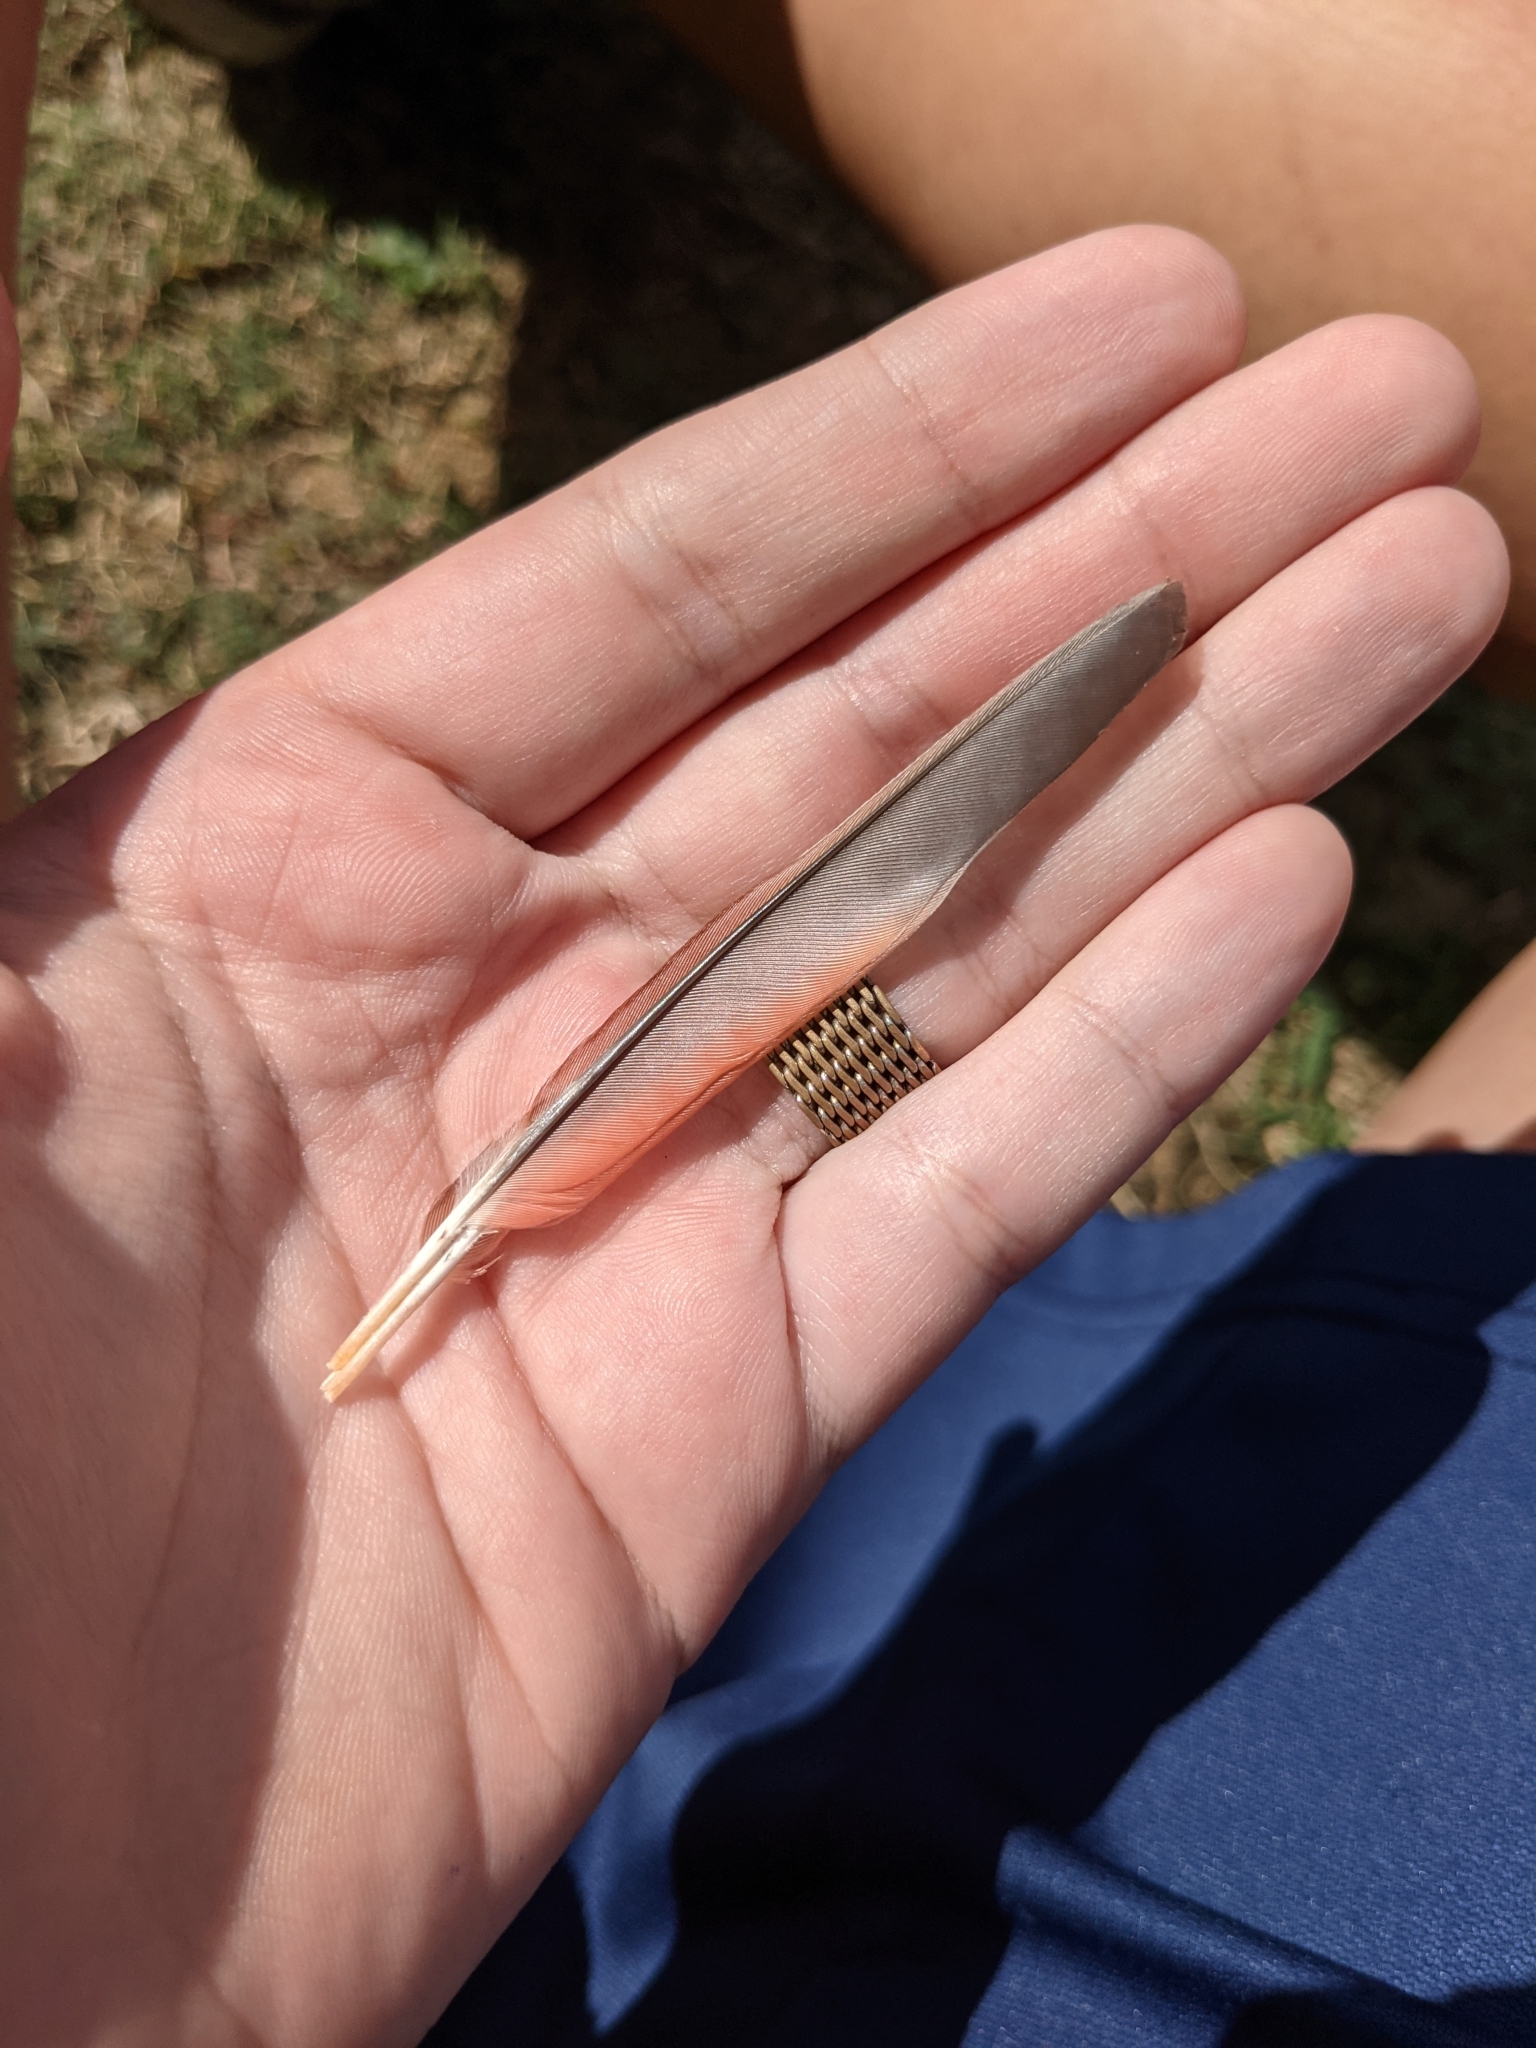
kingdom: Animalia
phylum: Chordata
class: Aves
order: Passeriformes
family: Cardinalidae
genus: Cardinalis
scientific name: Cardinalis cardinalis
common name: Northern cardinal
